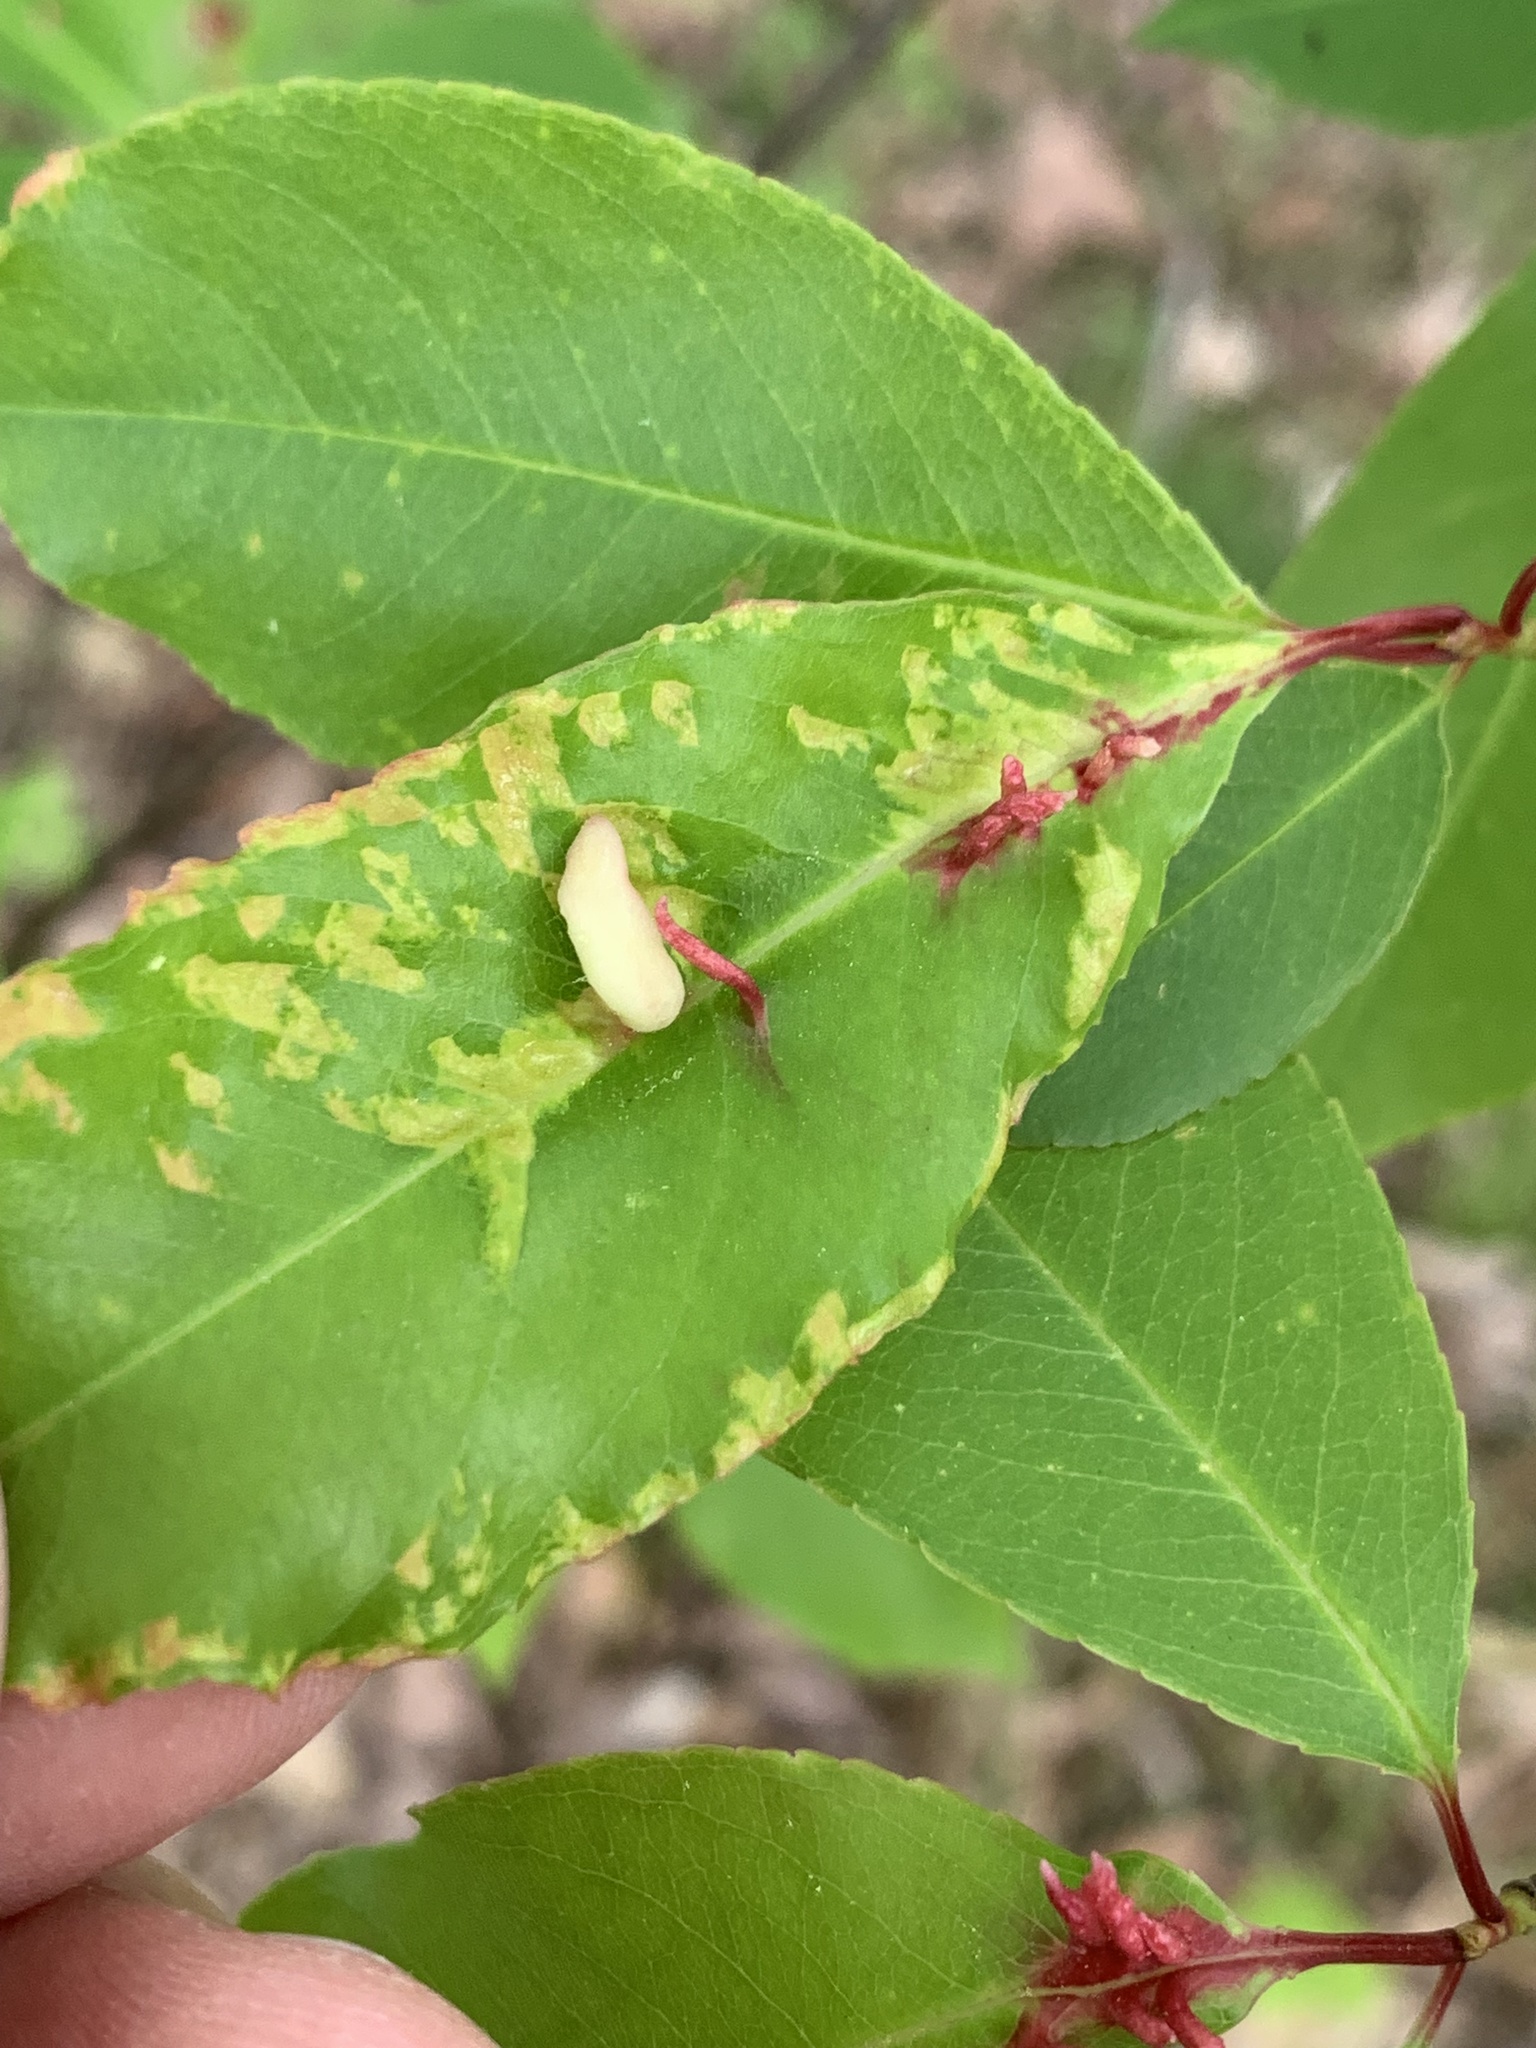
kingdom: Animalia
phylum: Arthropoda
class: Insecta
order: Diptera
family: Cecidomyiidae
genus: Contarinia
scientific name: Contarinia cerasiserotinae
